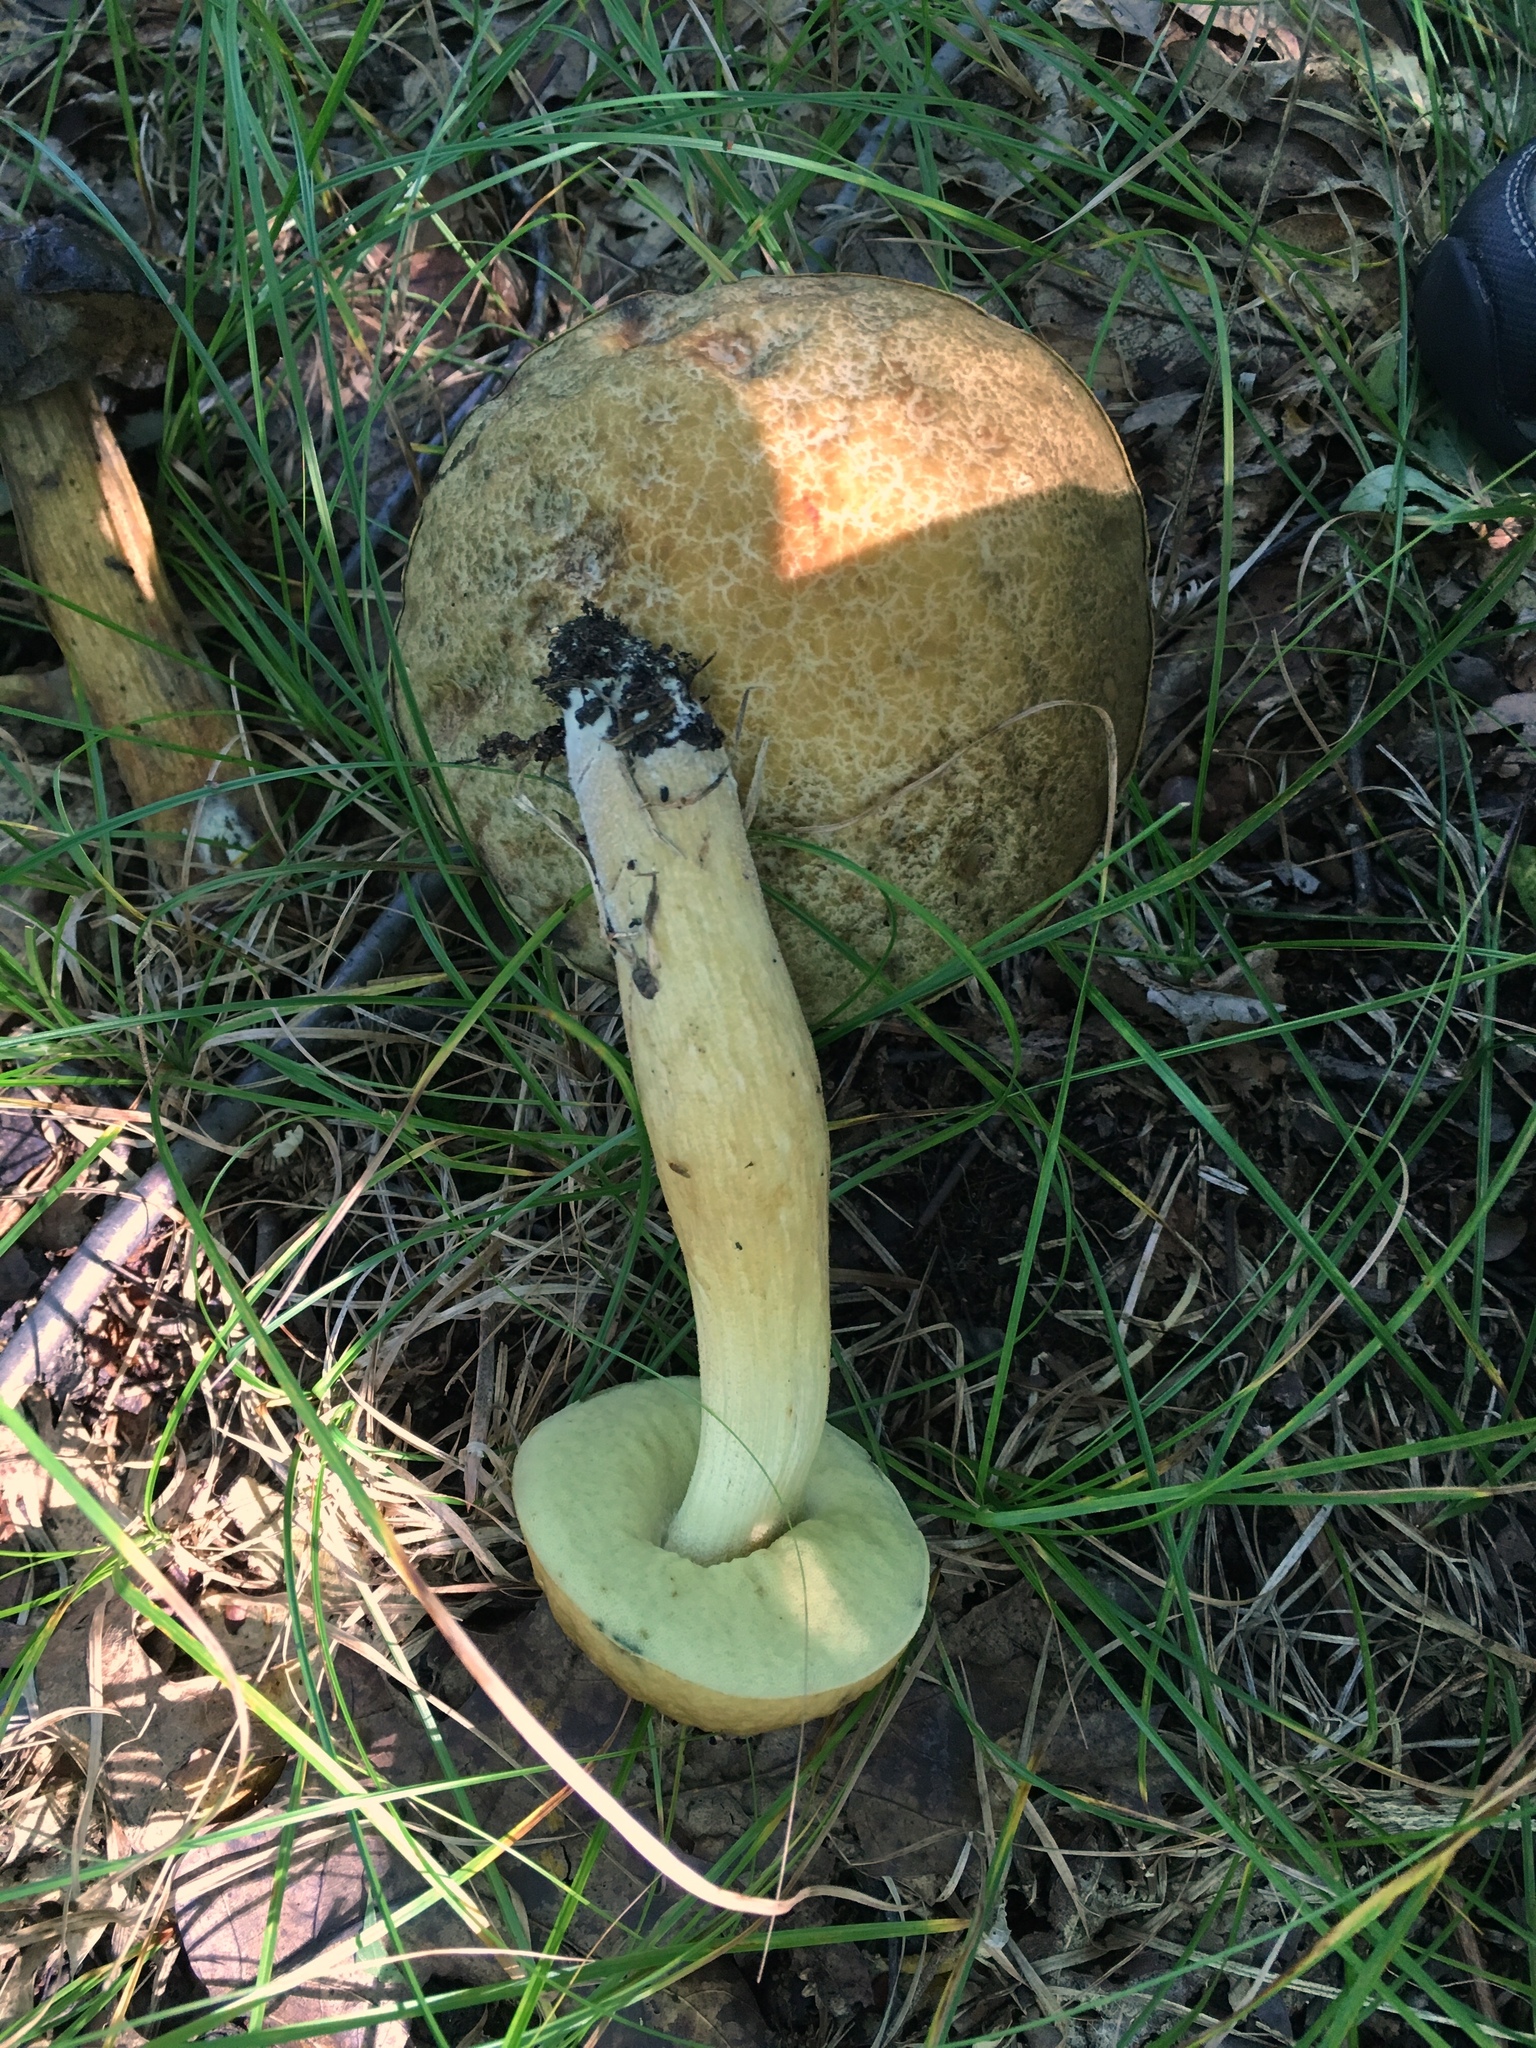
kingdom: Fungi
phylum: Basidiomycota
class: Agaricomycetes
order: Boletales
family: Boletaceae
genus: Leccinellum
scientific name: Leccinellum rugosiceps
